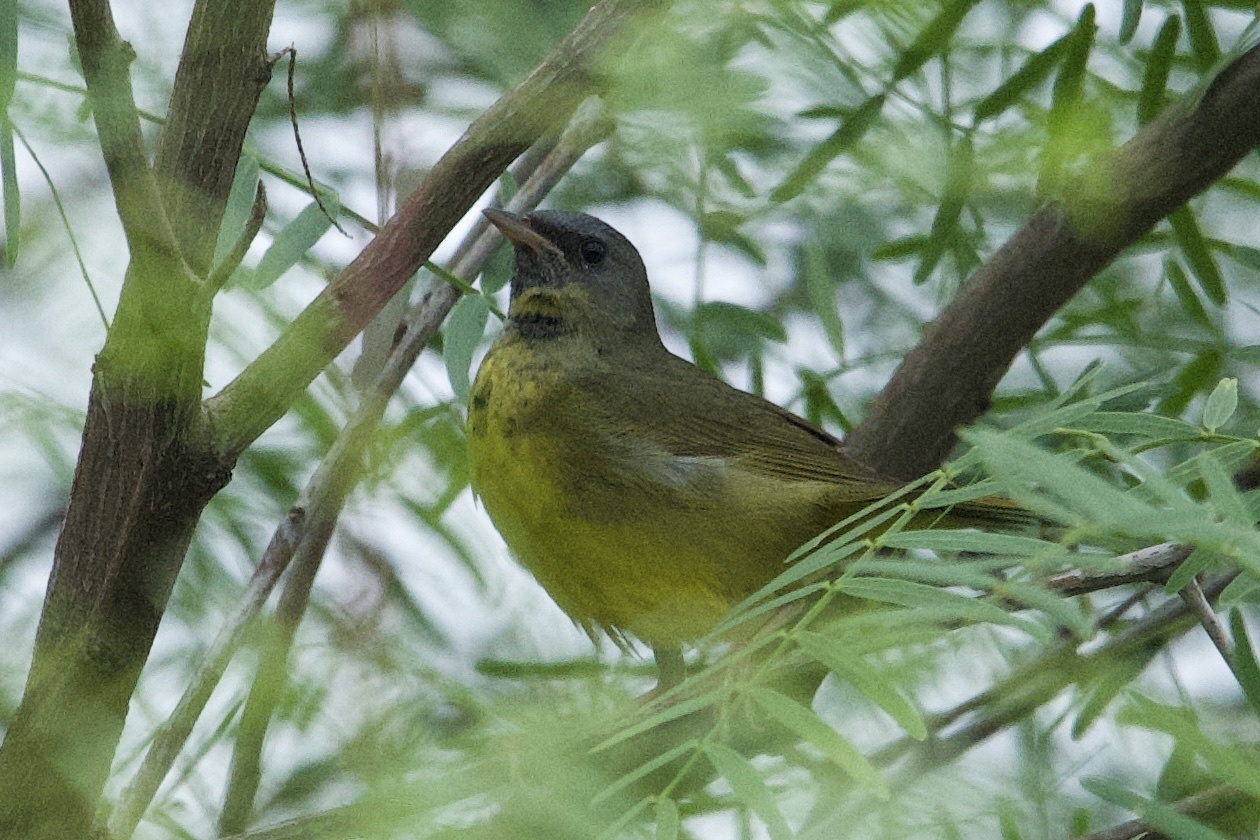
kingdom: Animalia
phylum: Chordata
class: Aves
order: Passeriformes
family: Parulidae
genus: Geothlypis
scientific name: Geothlypis philadelphia
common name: Mourning warbler
